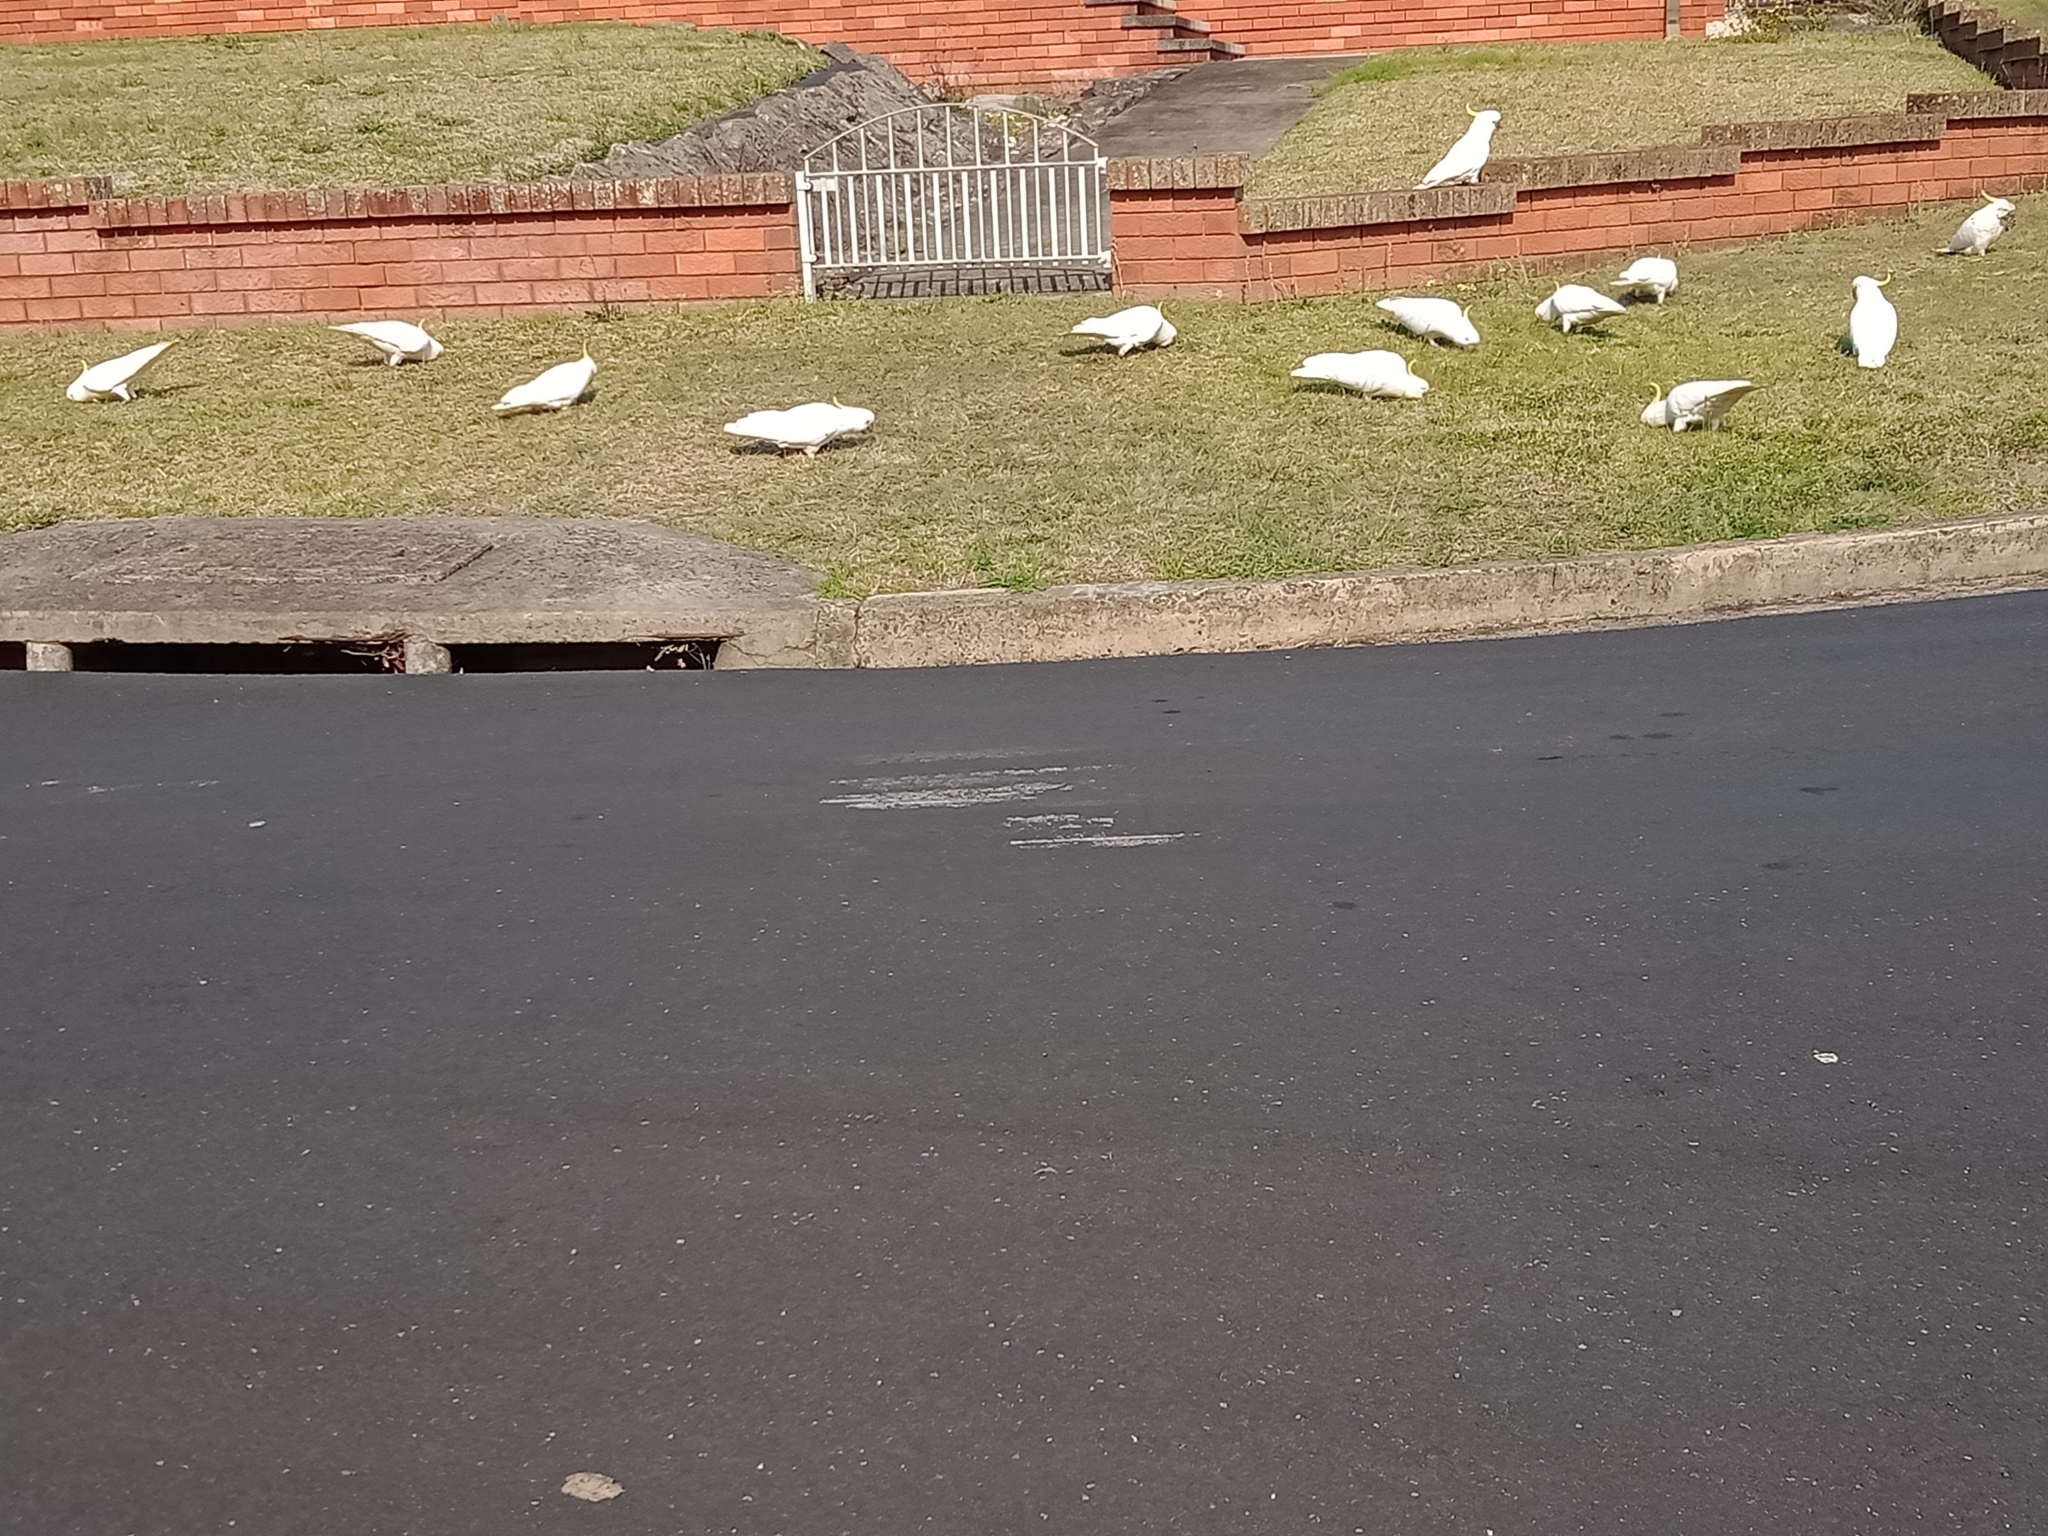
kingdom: Animalia
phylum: Chordata
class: Aves
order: Psittaciformes
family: Psittacidae
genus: Cacatua
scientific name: Cacatua galerita
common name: Sulphur-crested cockatoo
